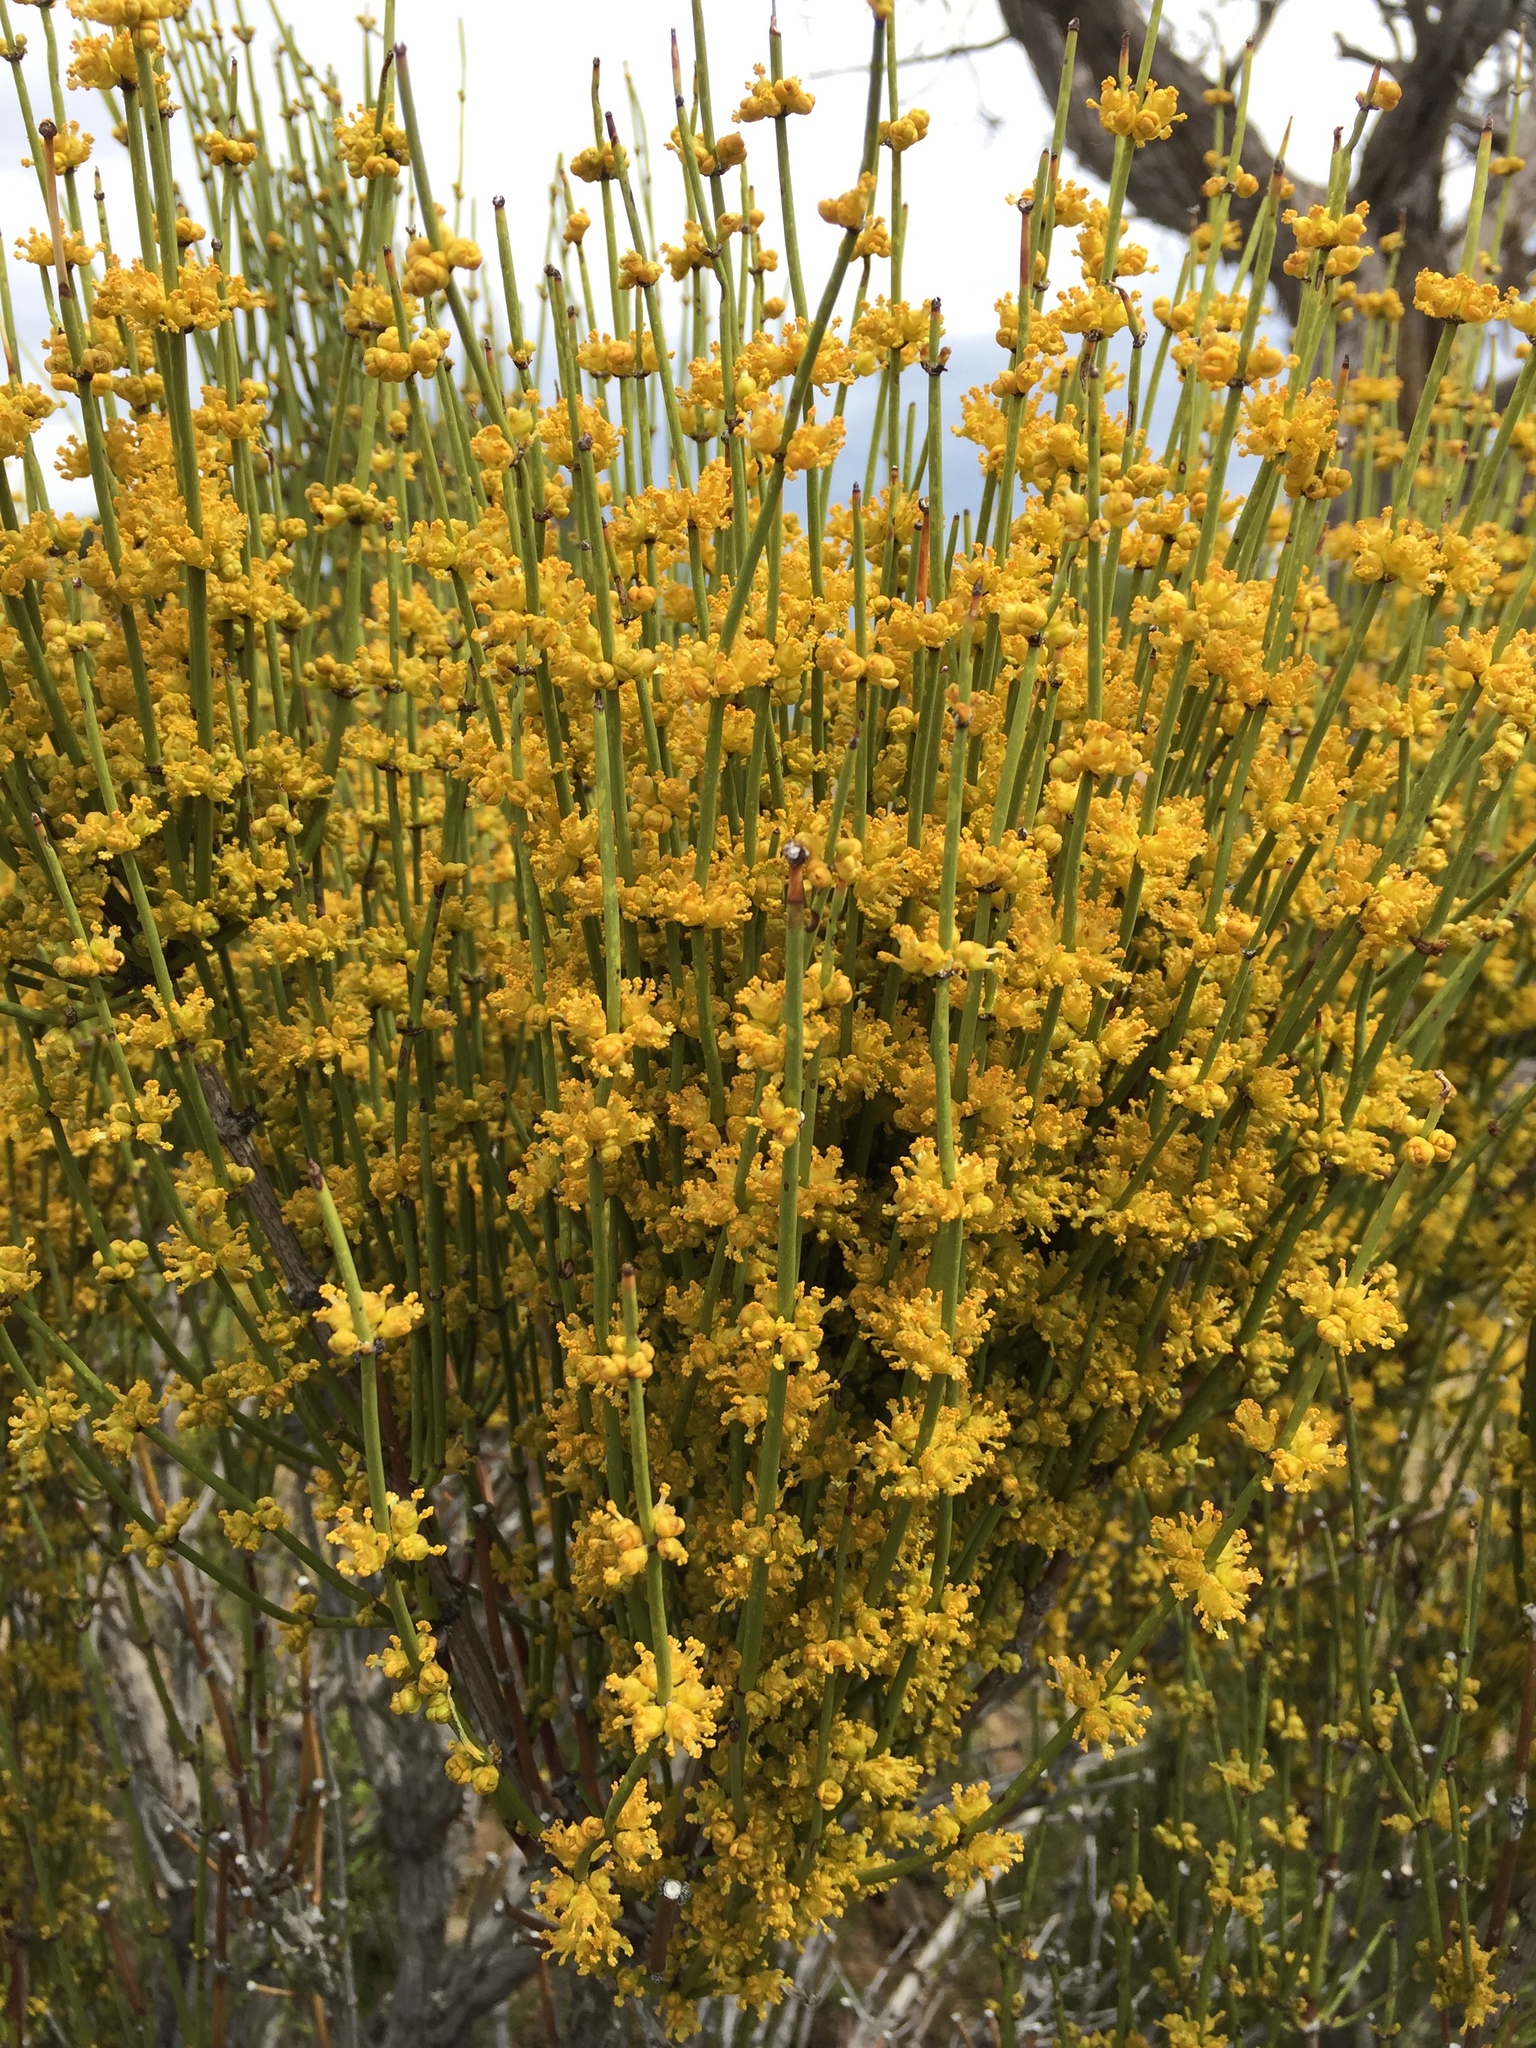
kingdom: Plantae
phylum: Tracheophyta
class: Gnetopsida
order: Ephedrales
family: Ephedraceae
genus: Ephedra
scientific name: Ephedra viridis
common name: Green ephedra
